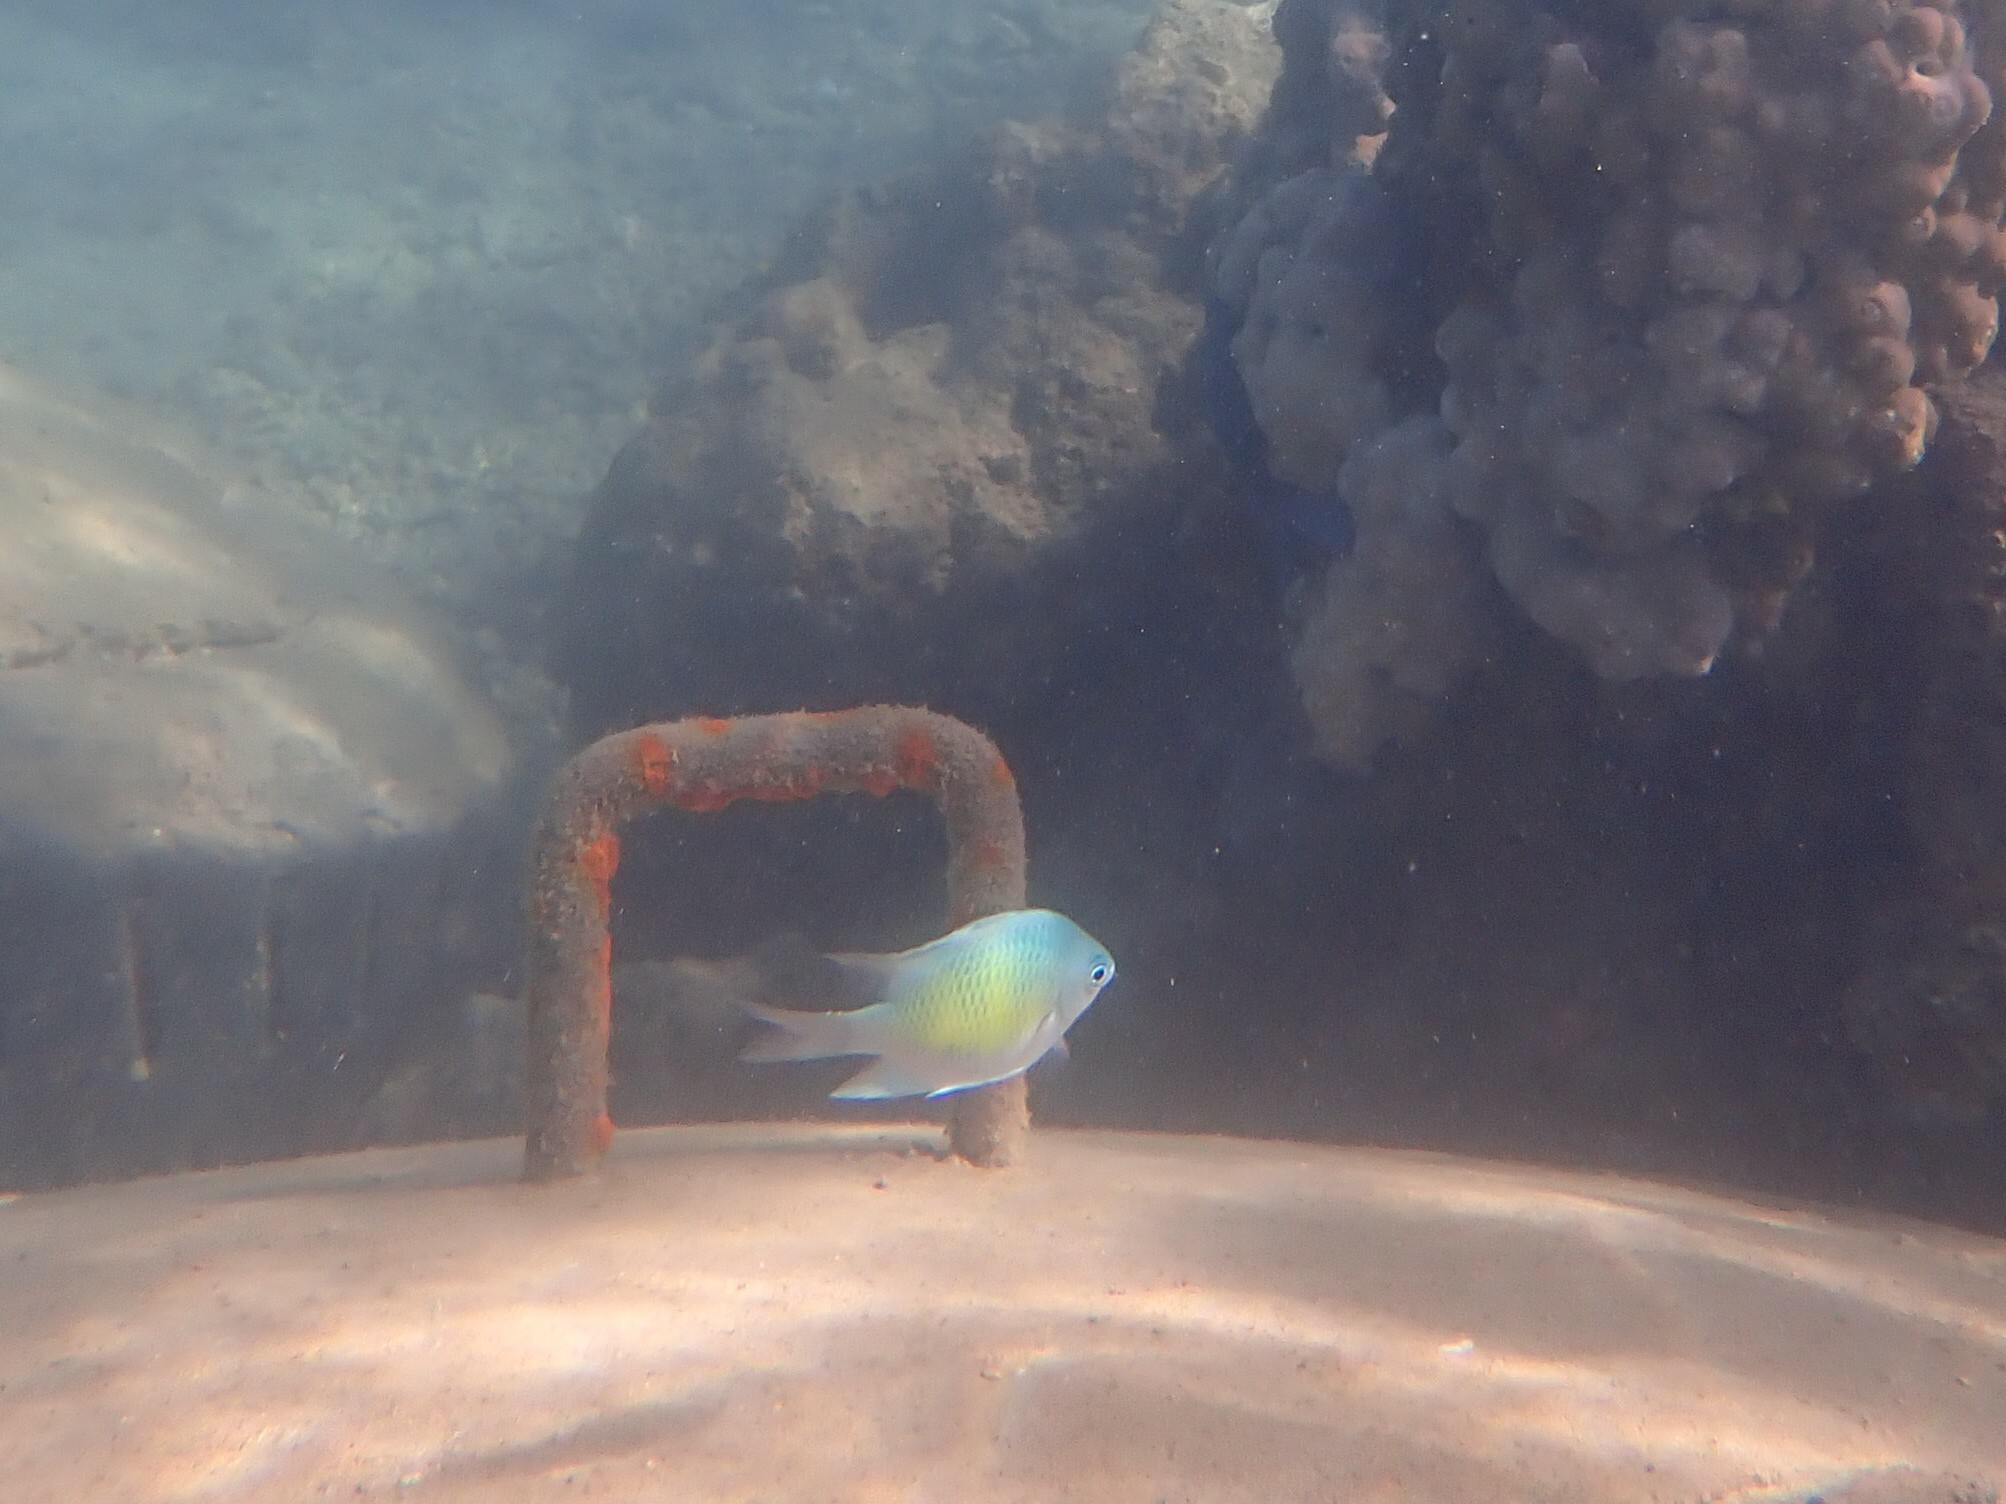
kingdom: Animalia
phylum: Chordata
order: Perciformes
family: Pomacentridae
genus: Amblyglyphidodon
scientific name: Amblyglyphidodon curacao
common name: Staghorn damsel
